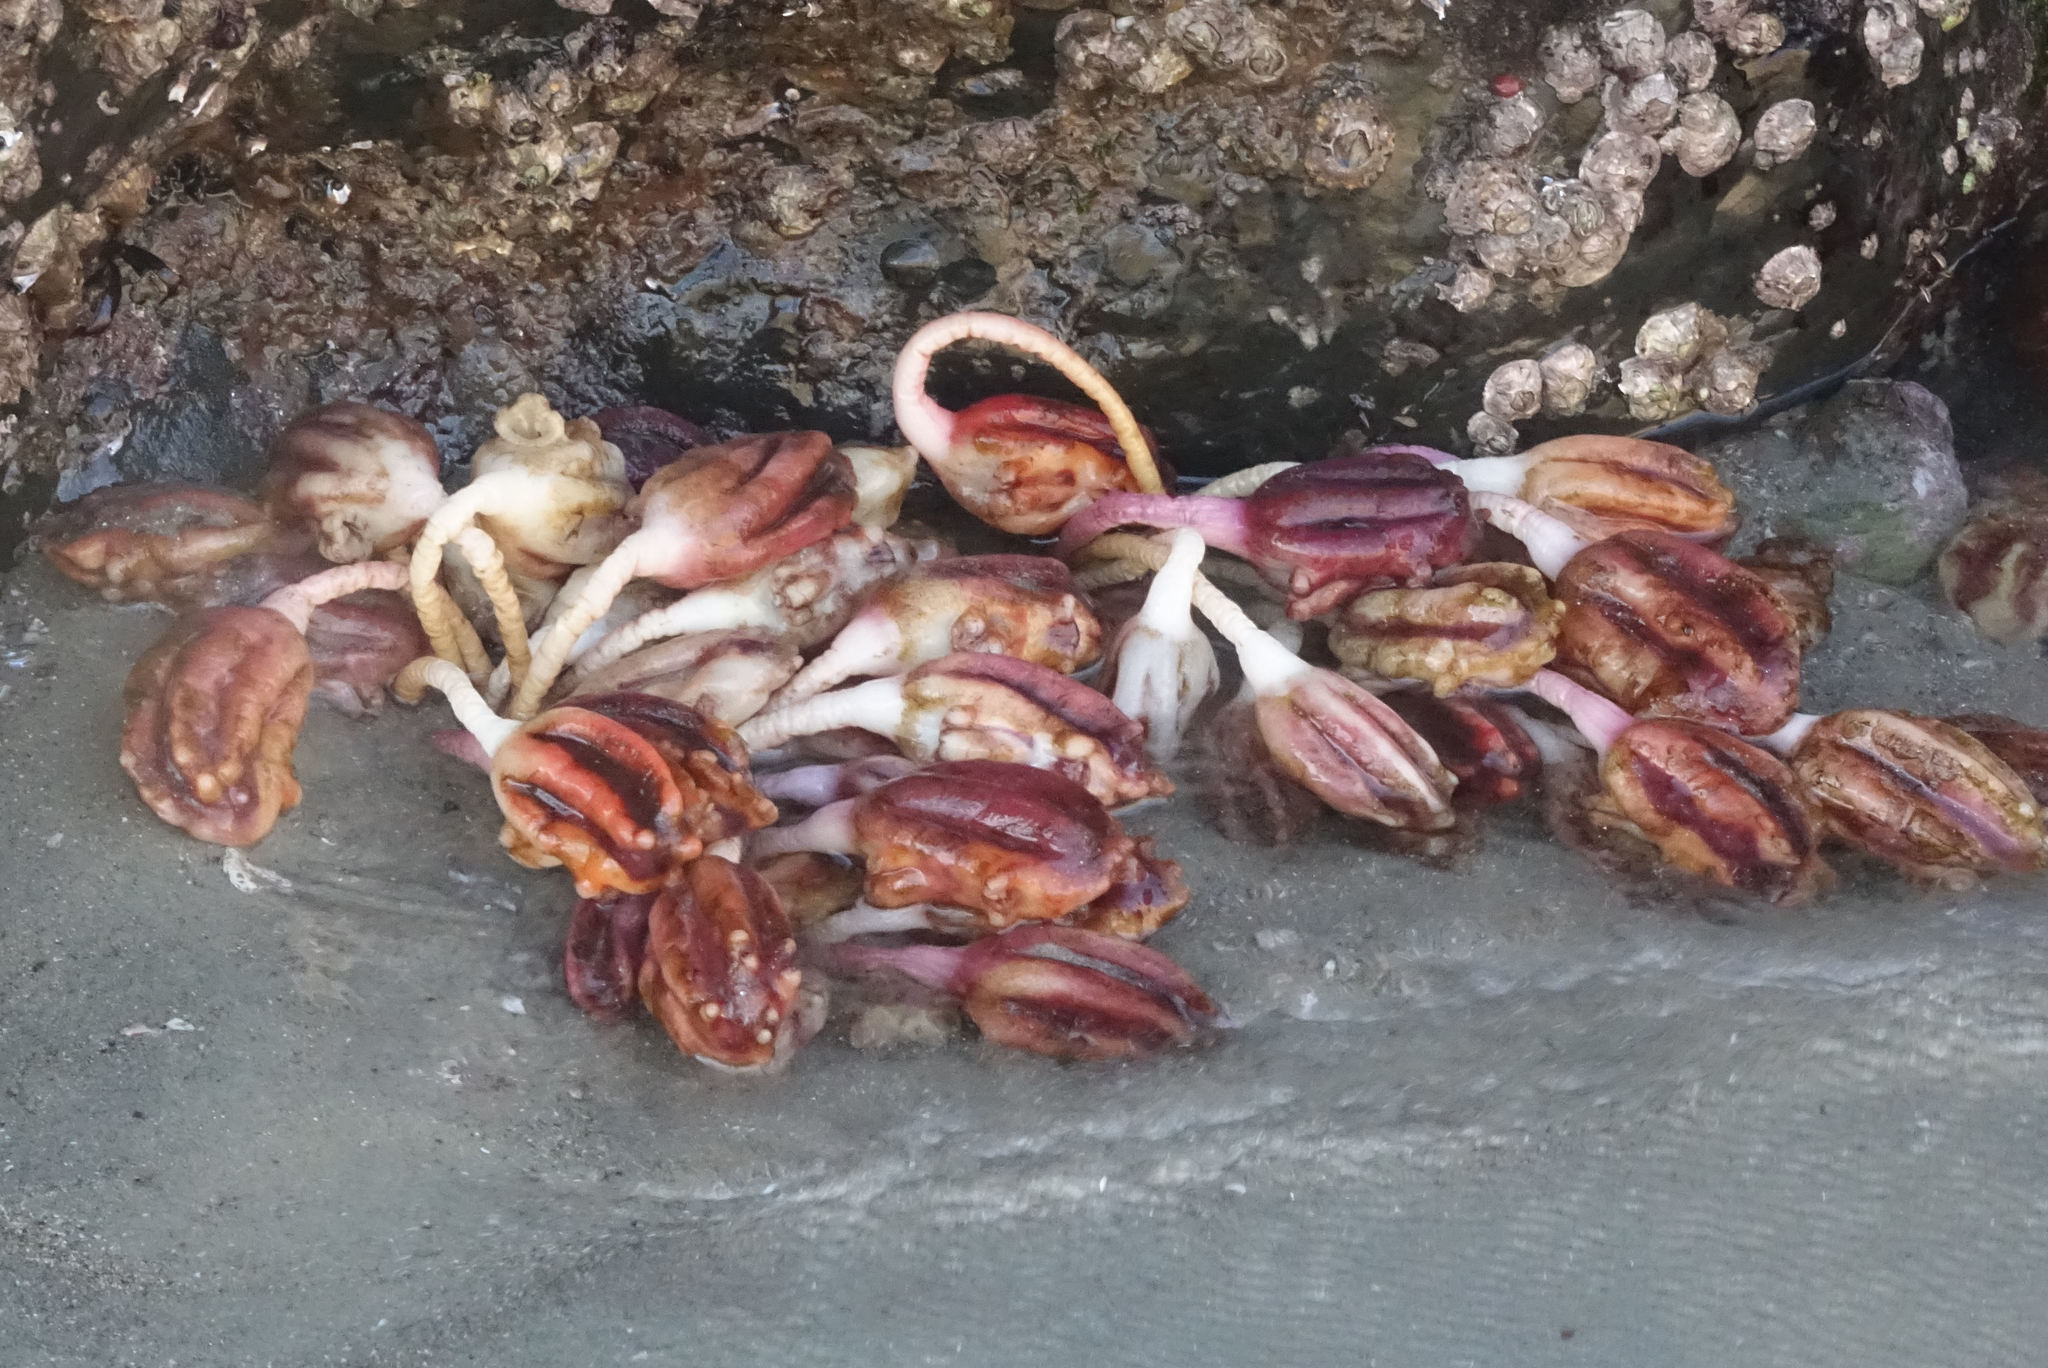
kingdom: Animalia
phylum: Chordata
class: Ascidiacea
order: Stolidobranchia
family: Pyuridae
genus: Pyura
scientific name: Pyura pachydermatina
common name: Sea tulip
